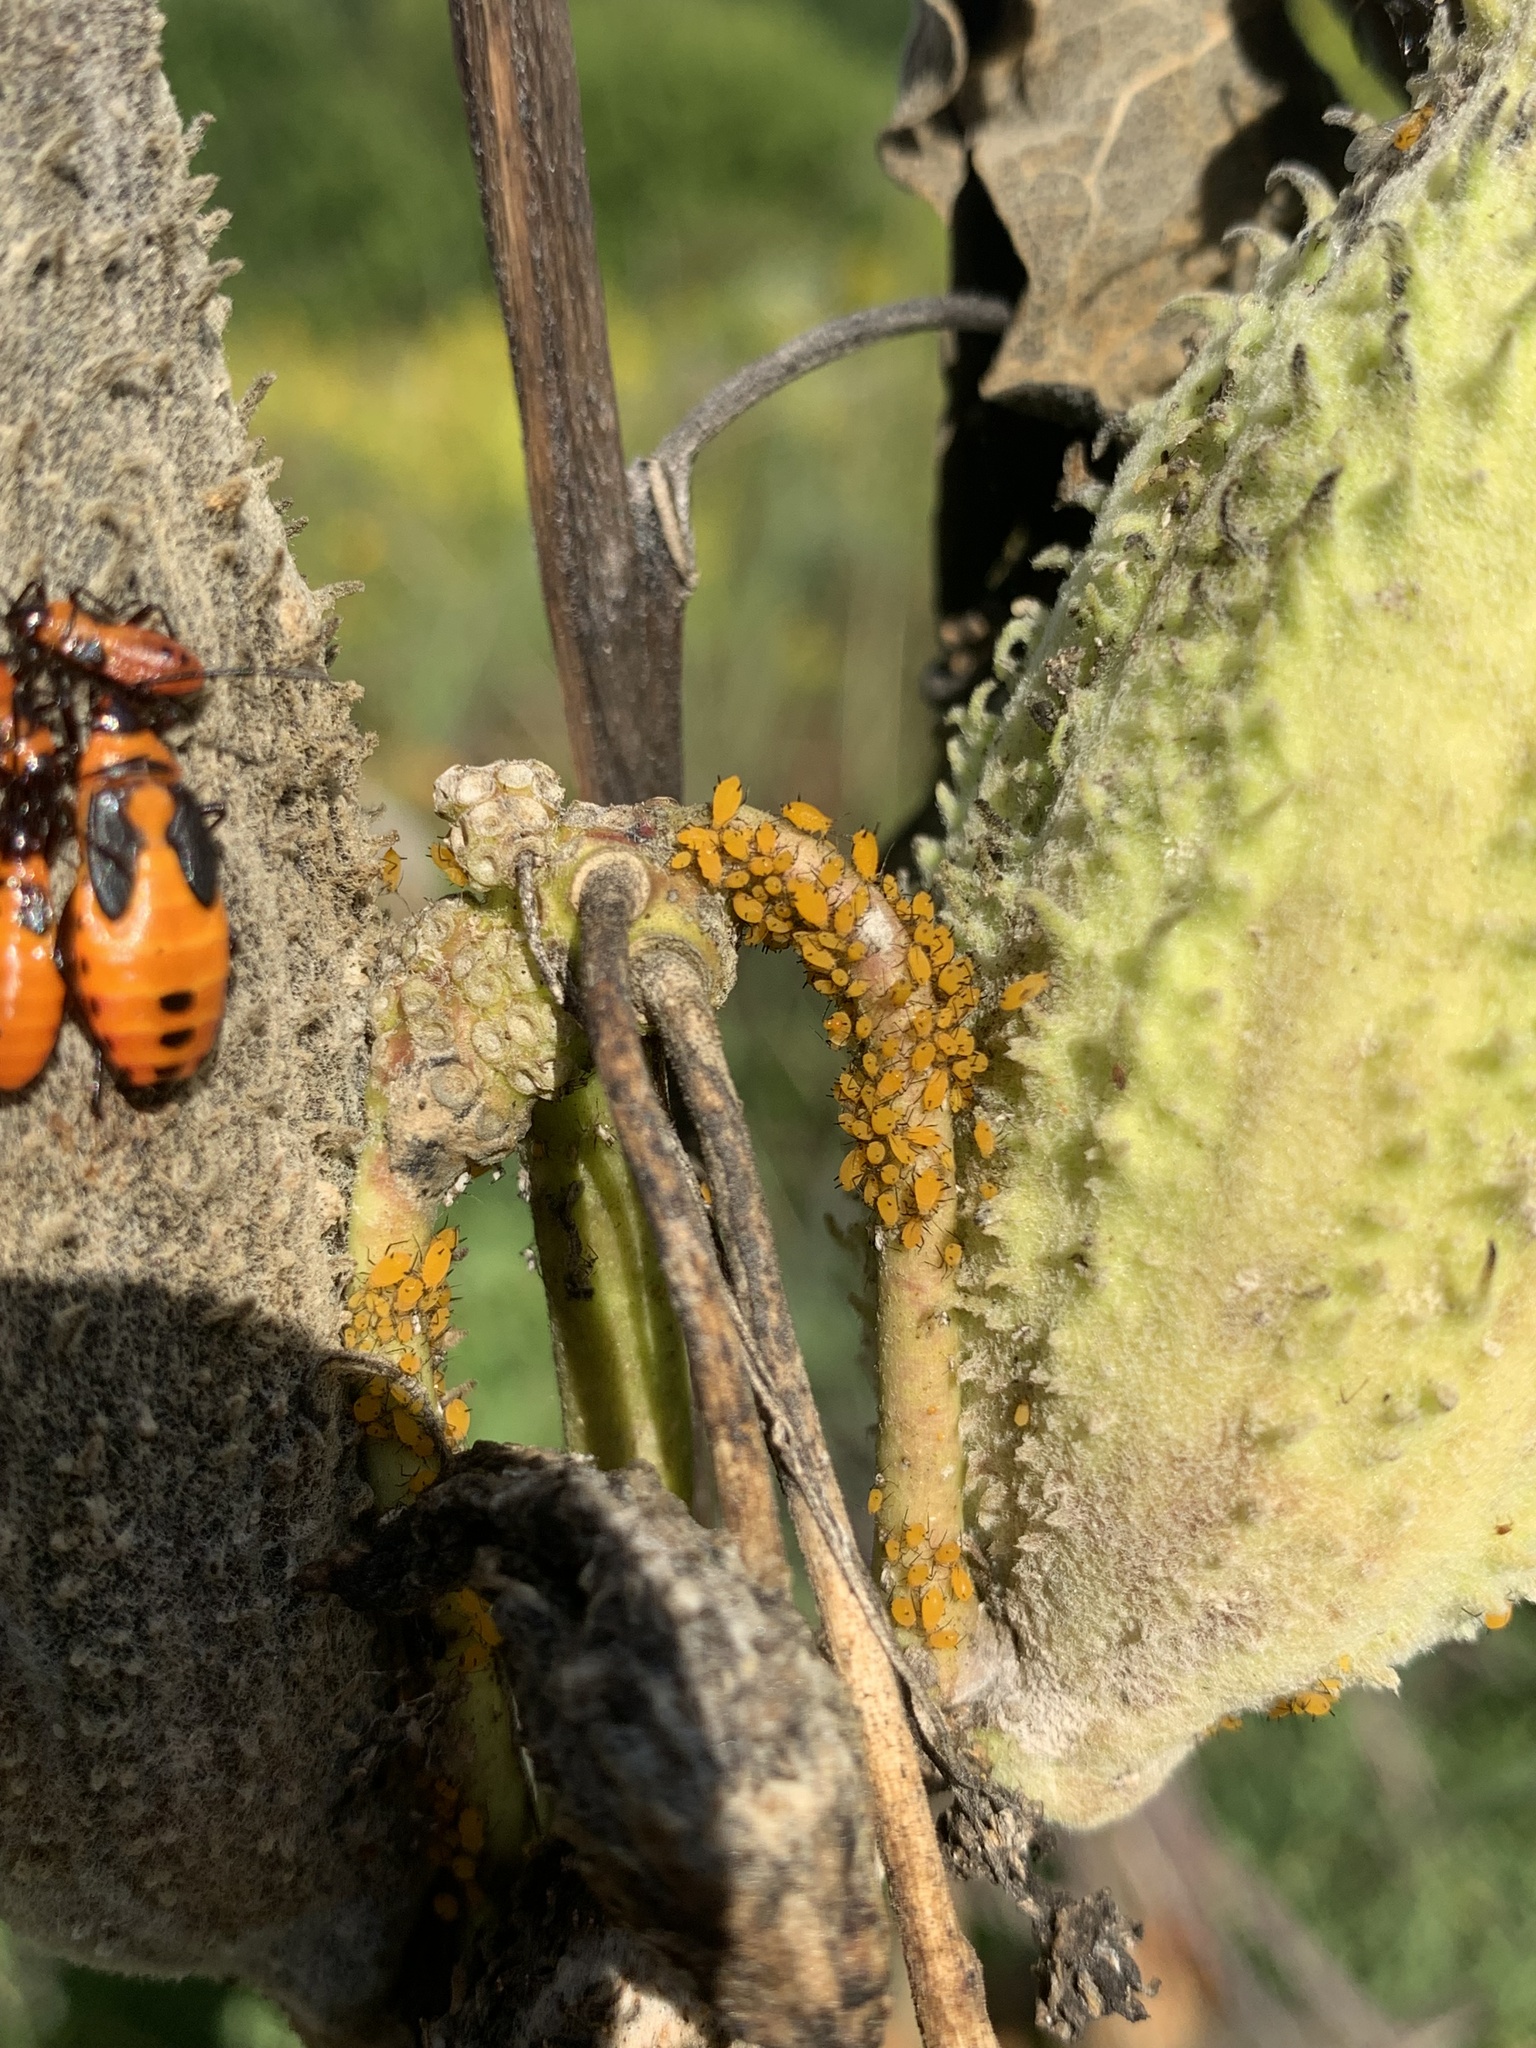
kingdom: Animalia
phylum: Arthropoda
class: Insecta
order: Hemiptera
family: Aphididae
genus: Aphis
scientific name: Aphis nerii
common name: Oleander aphid
